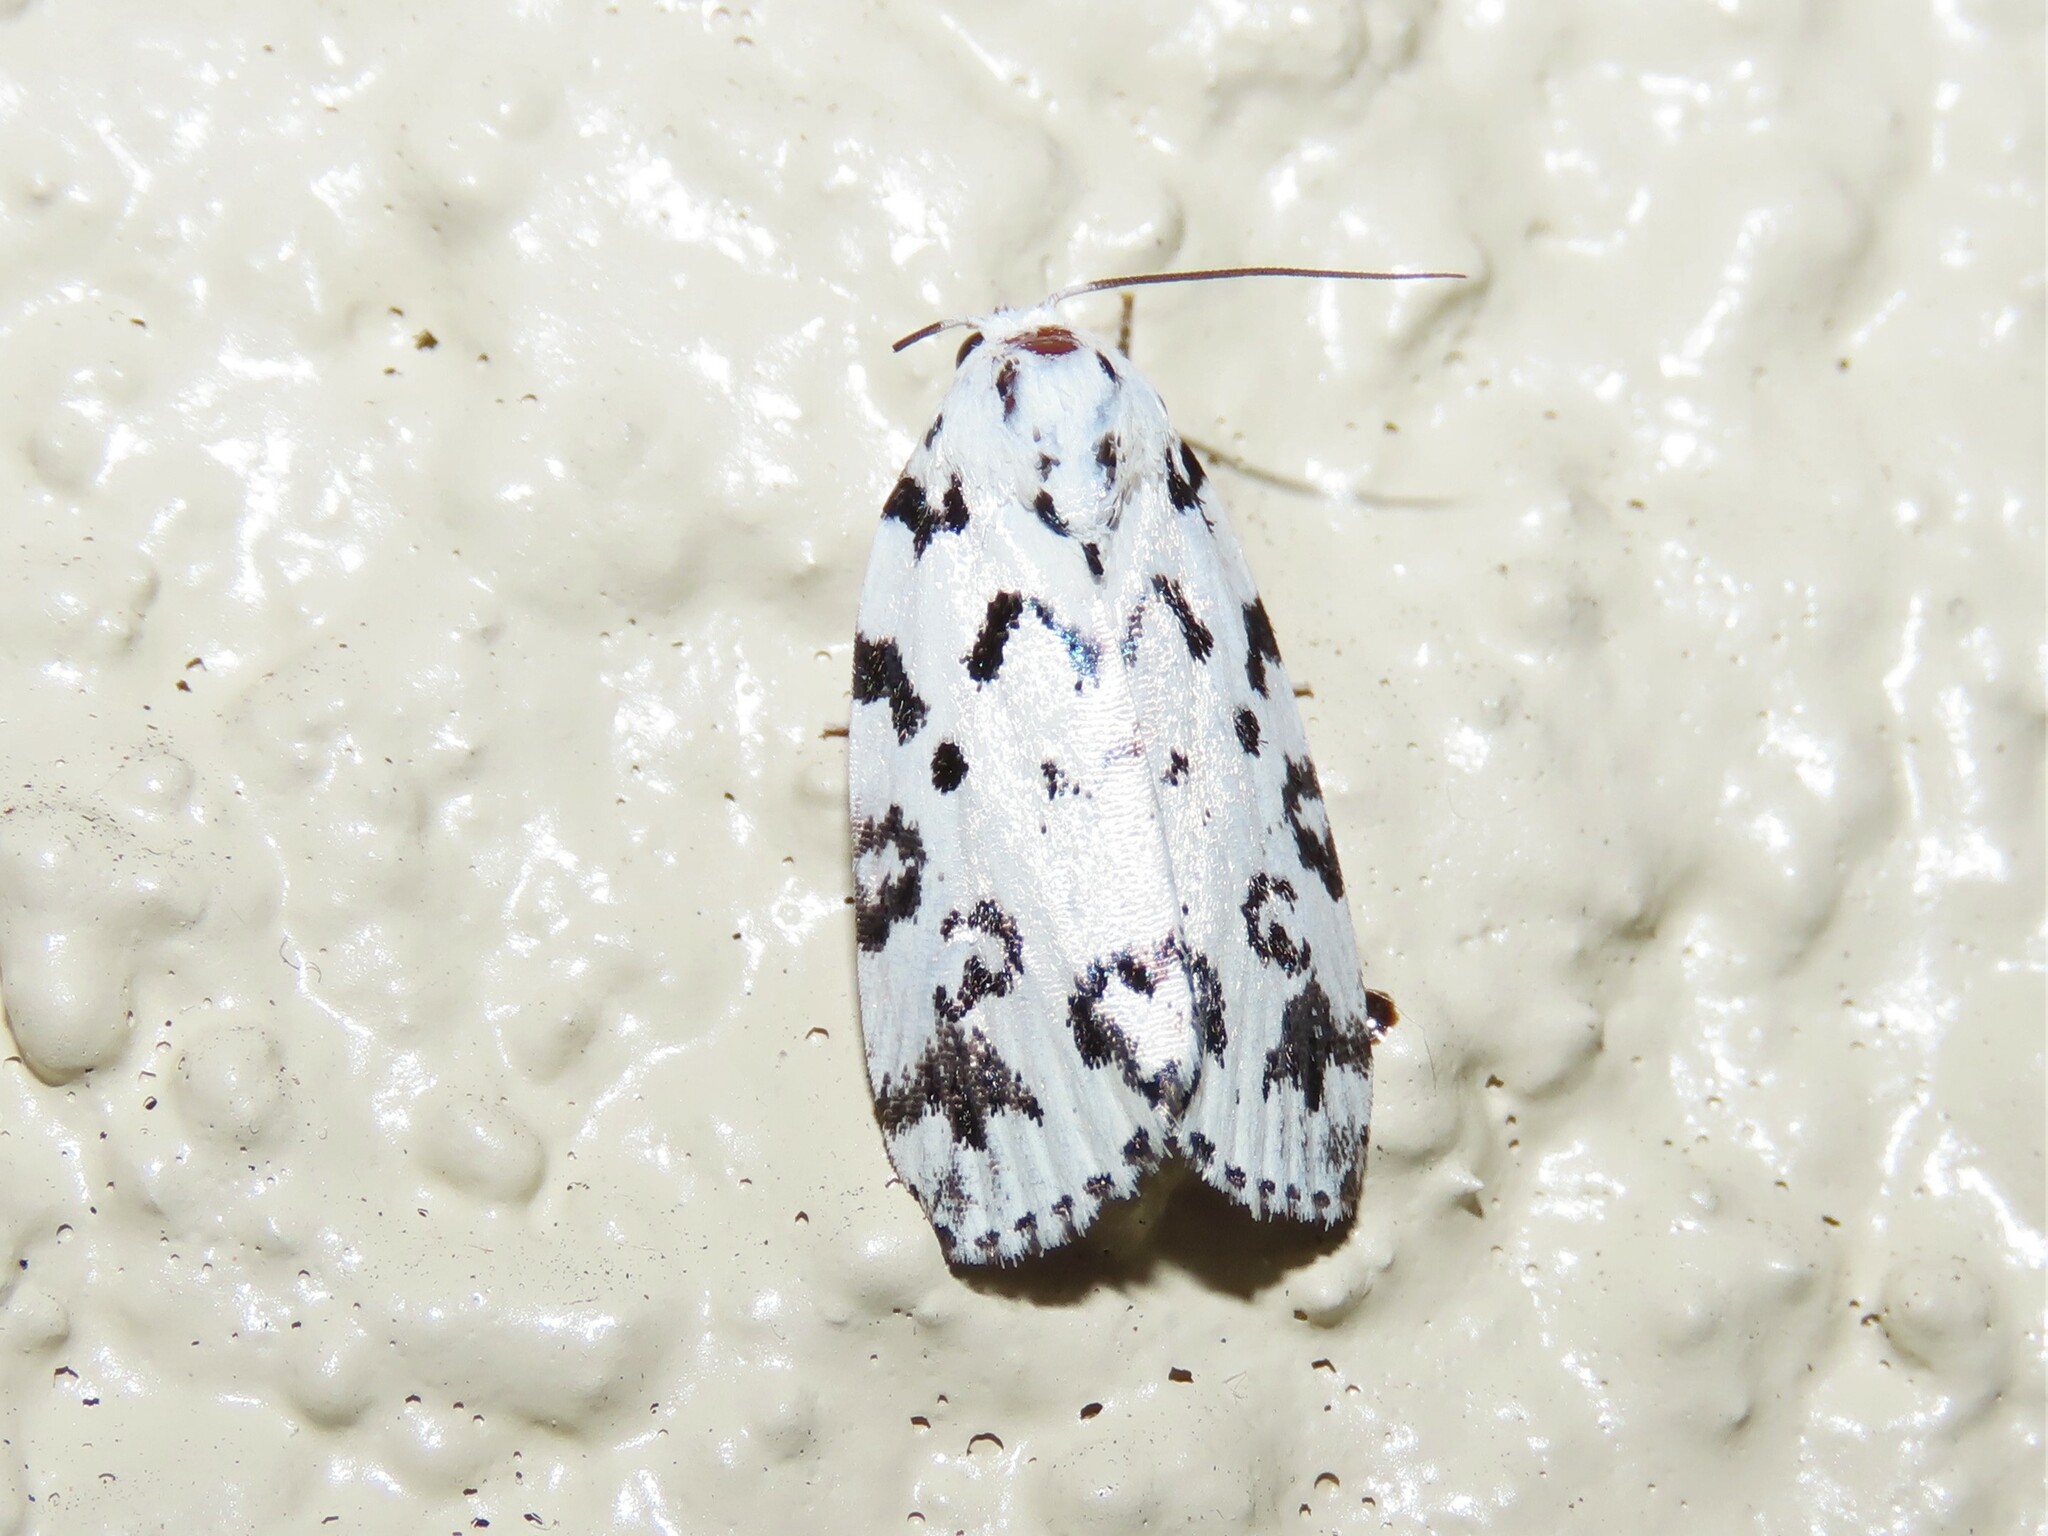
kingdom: Animalia
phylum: Arthropoda
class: Insecta
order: Lepidoptera
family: Noctuidae
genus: Polygrammate
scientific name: Polygrammate hebraeicum
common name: Hebrew moth
